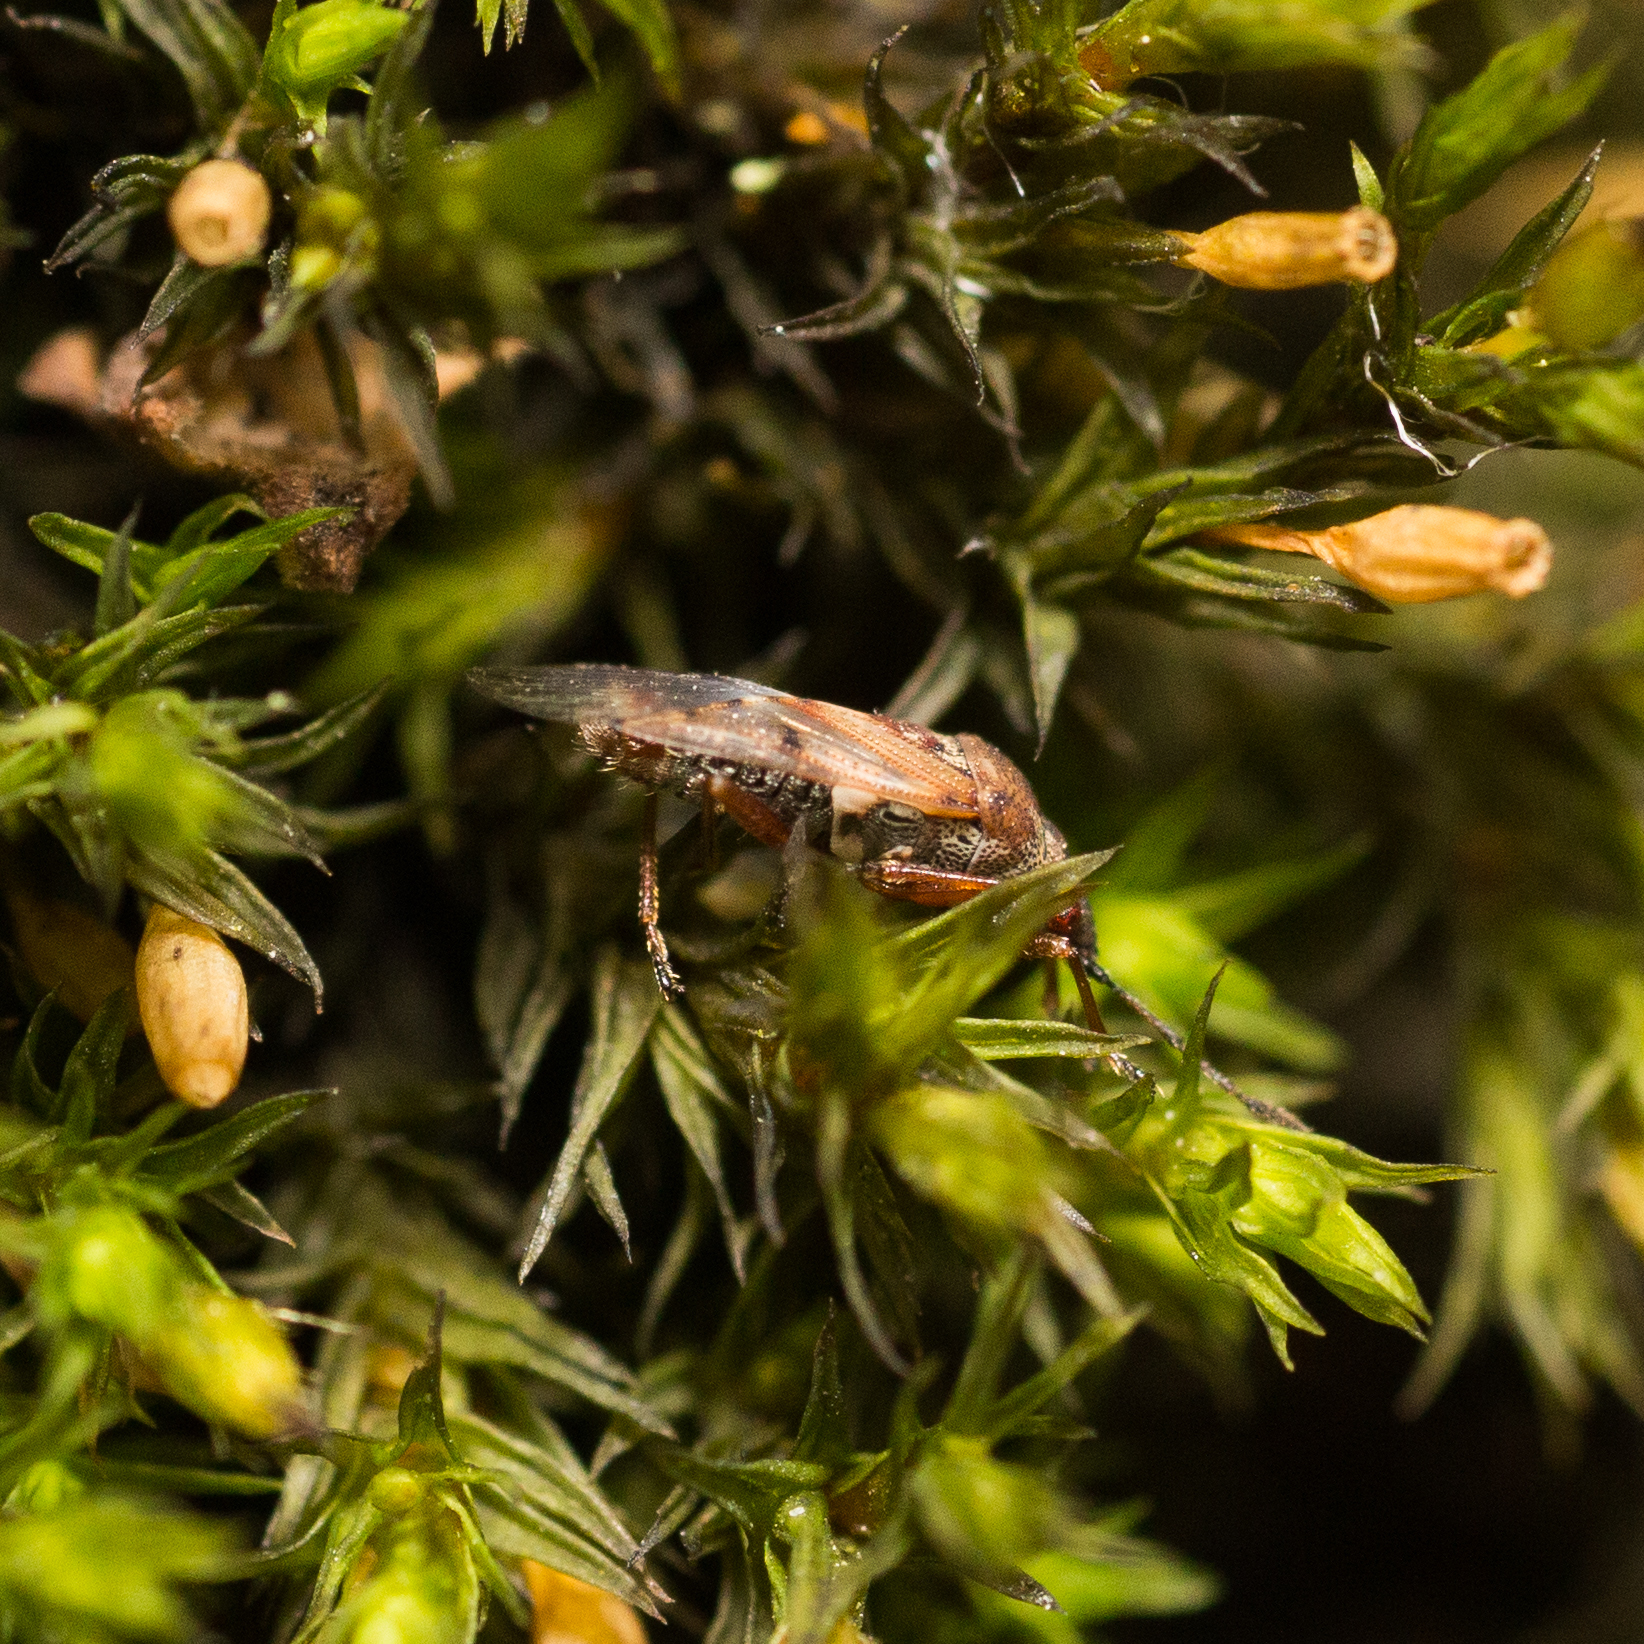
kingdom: Animalia
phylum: Arthropoda
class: Insecta
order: Hemiptera
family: Lygaeidae
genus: Kleidocerys
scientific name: Kleidocerys resedae
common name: Birch catkin bug
